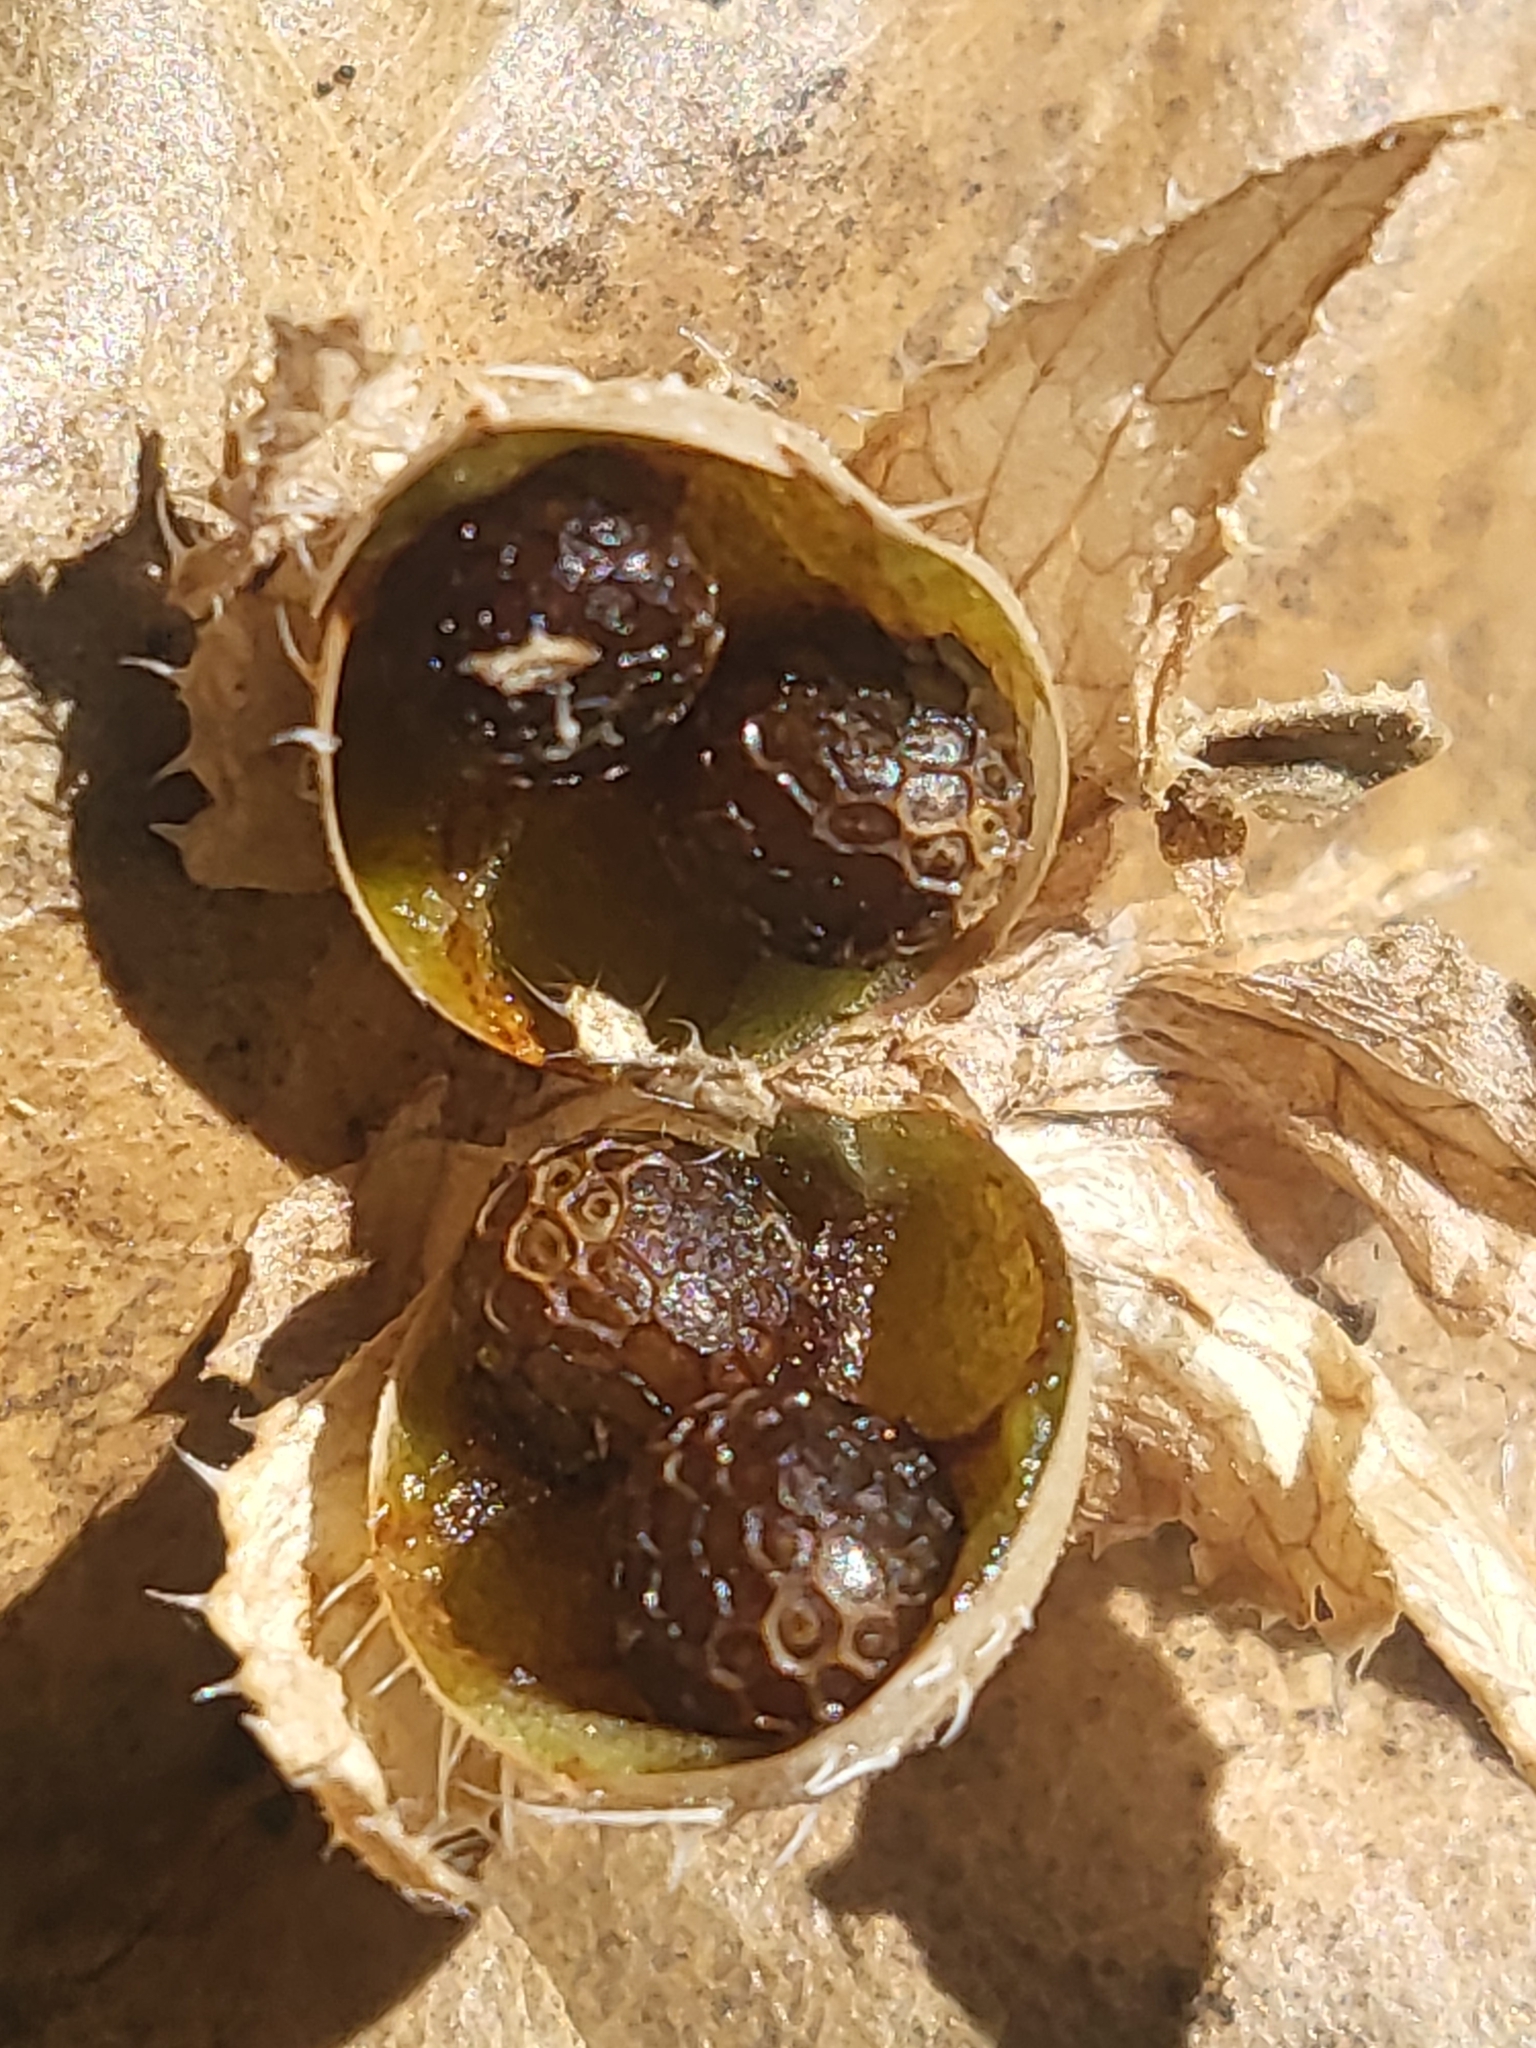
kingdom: Plantae
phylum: Tracheophyta
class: Magnoliopsida
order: Boraginales
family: Hydrophyllaceae
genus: Pholistoma
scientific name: Pholistoma auritum
